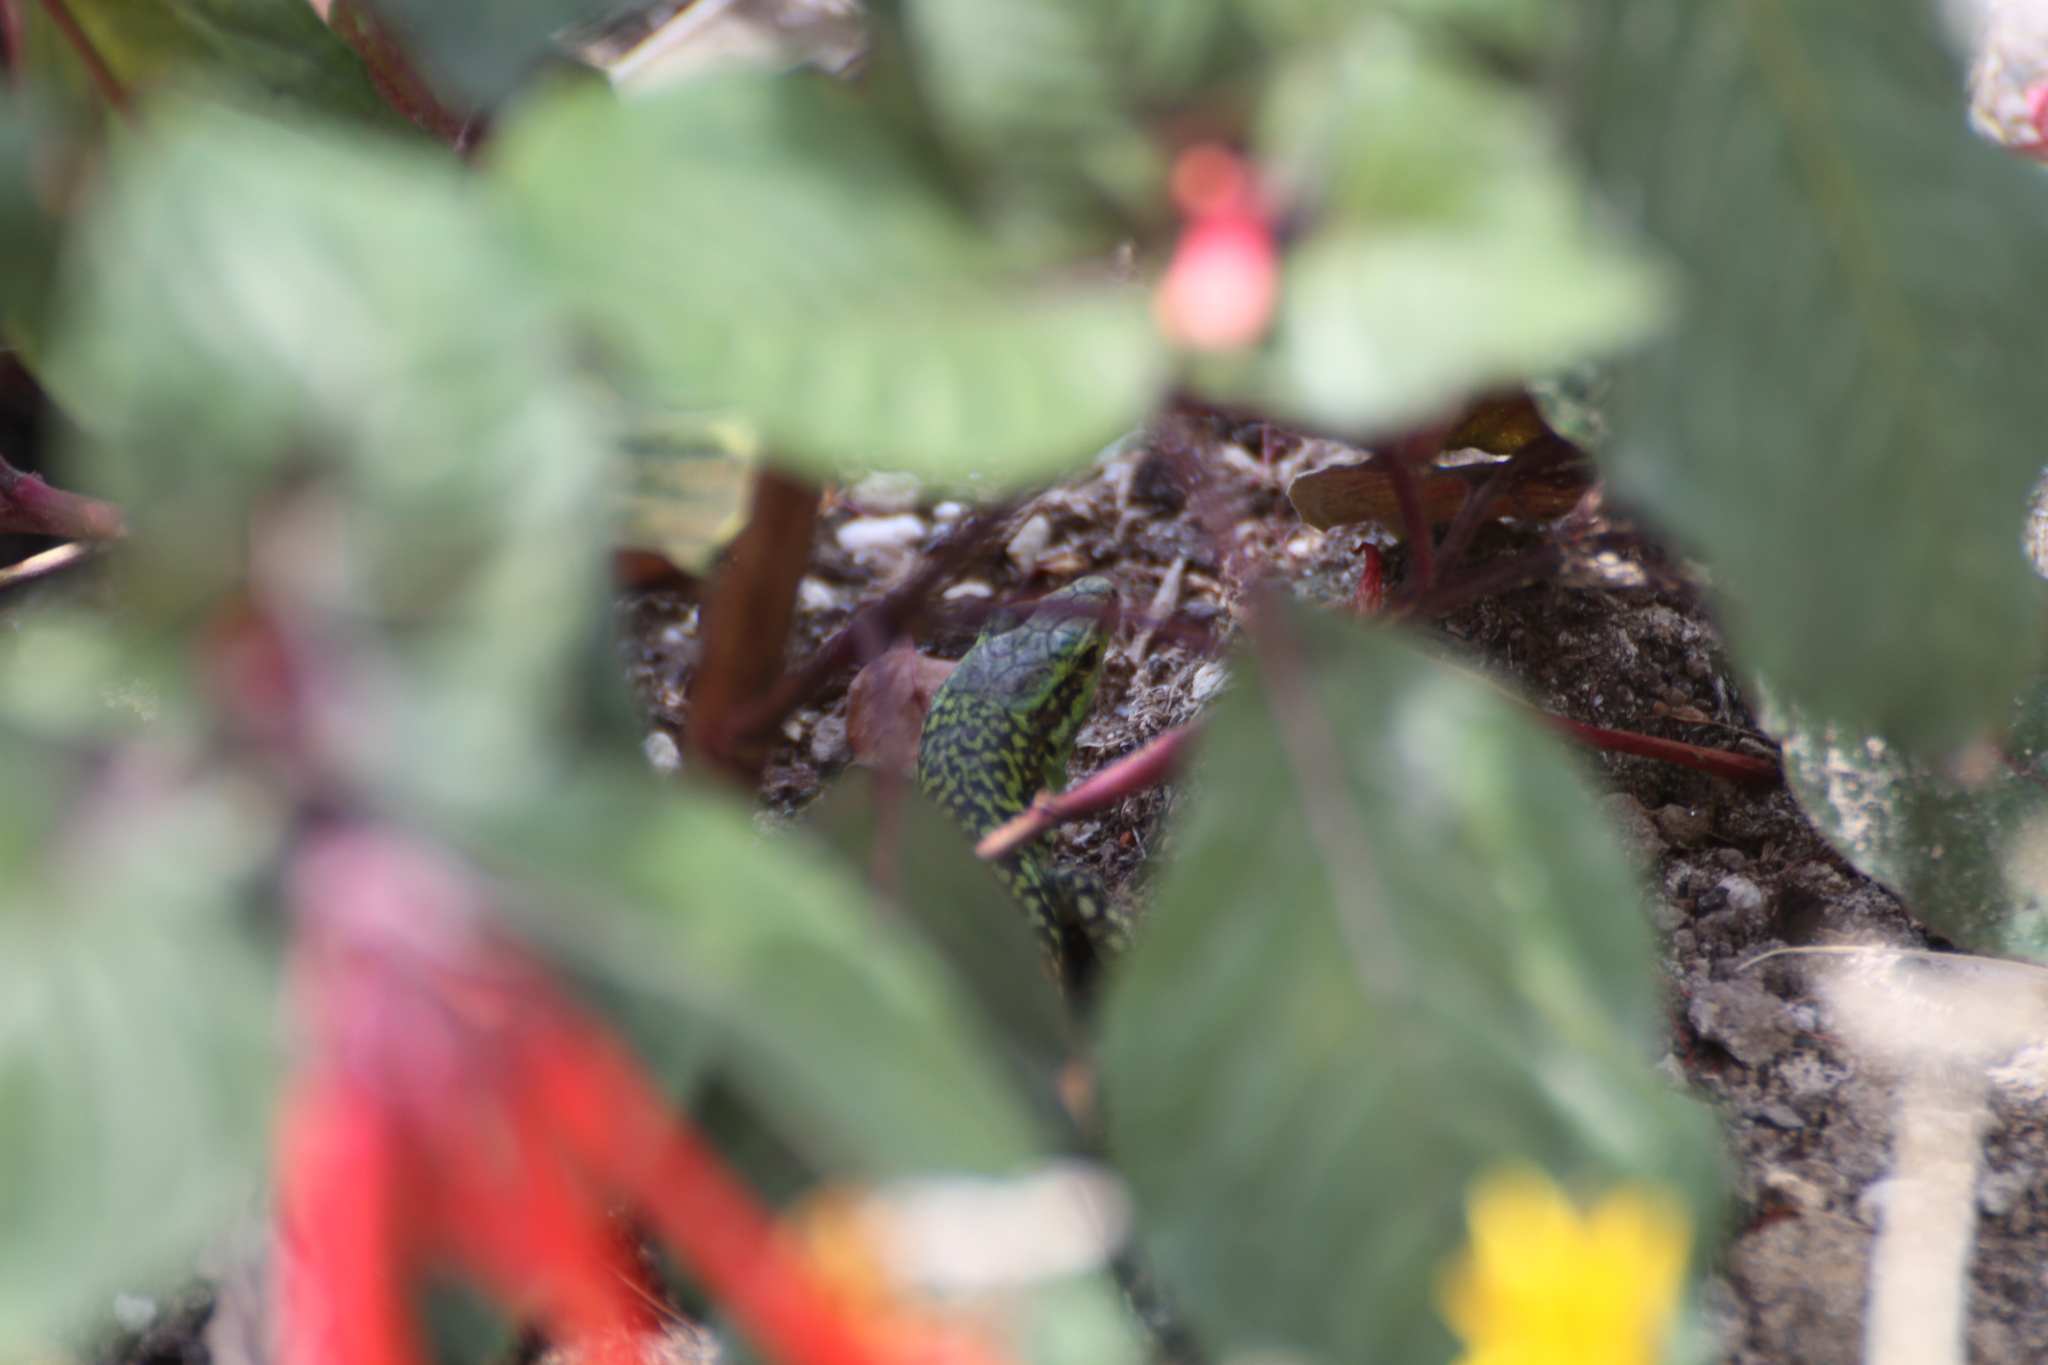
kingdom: Animalia
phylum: Chordata
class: Squamata
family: Lacertidae
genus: Podarcis
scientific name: Podarcis siculus
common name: Italian wall lizard
